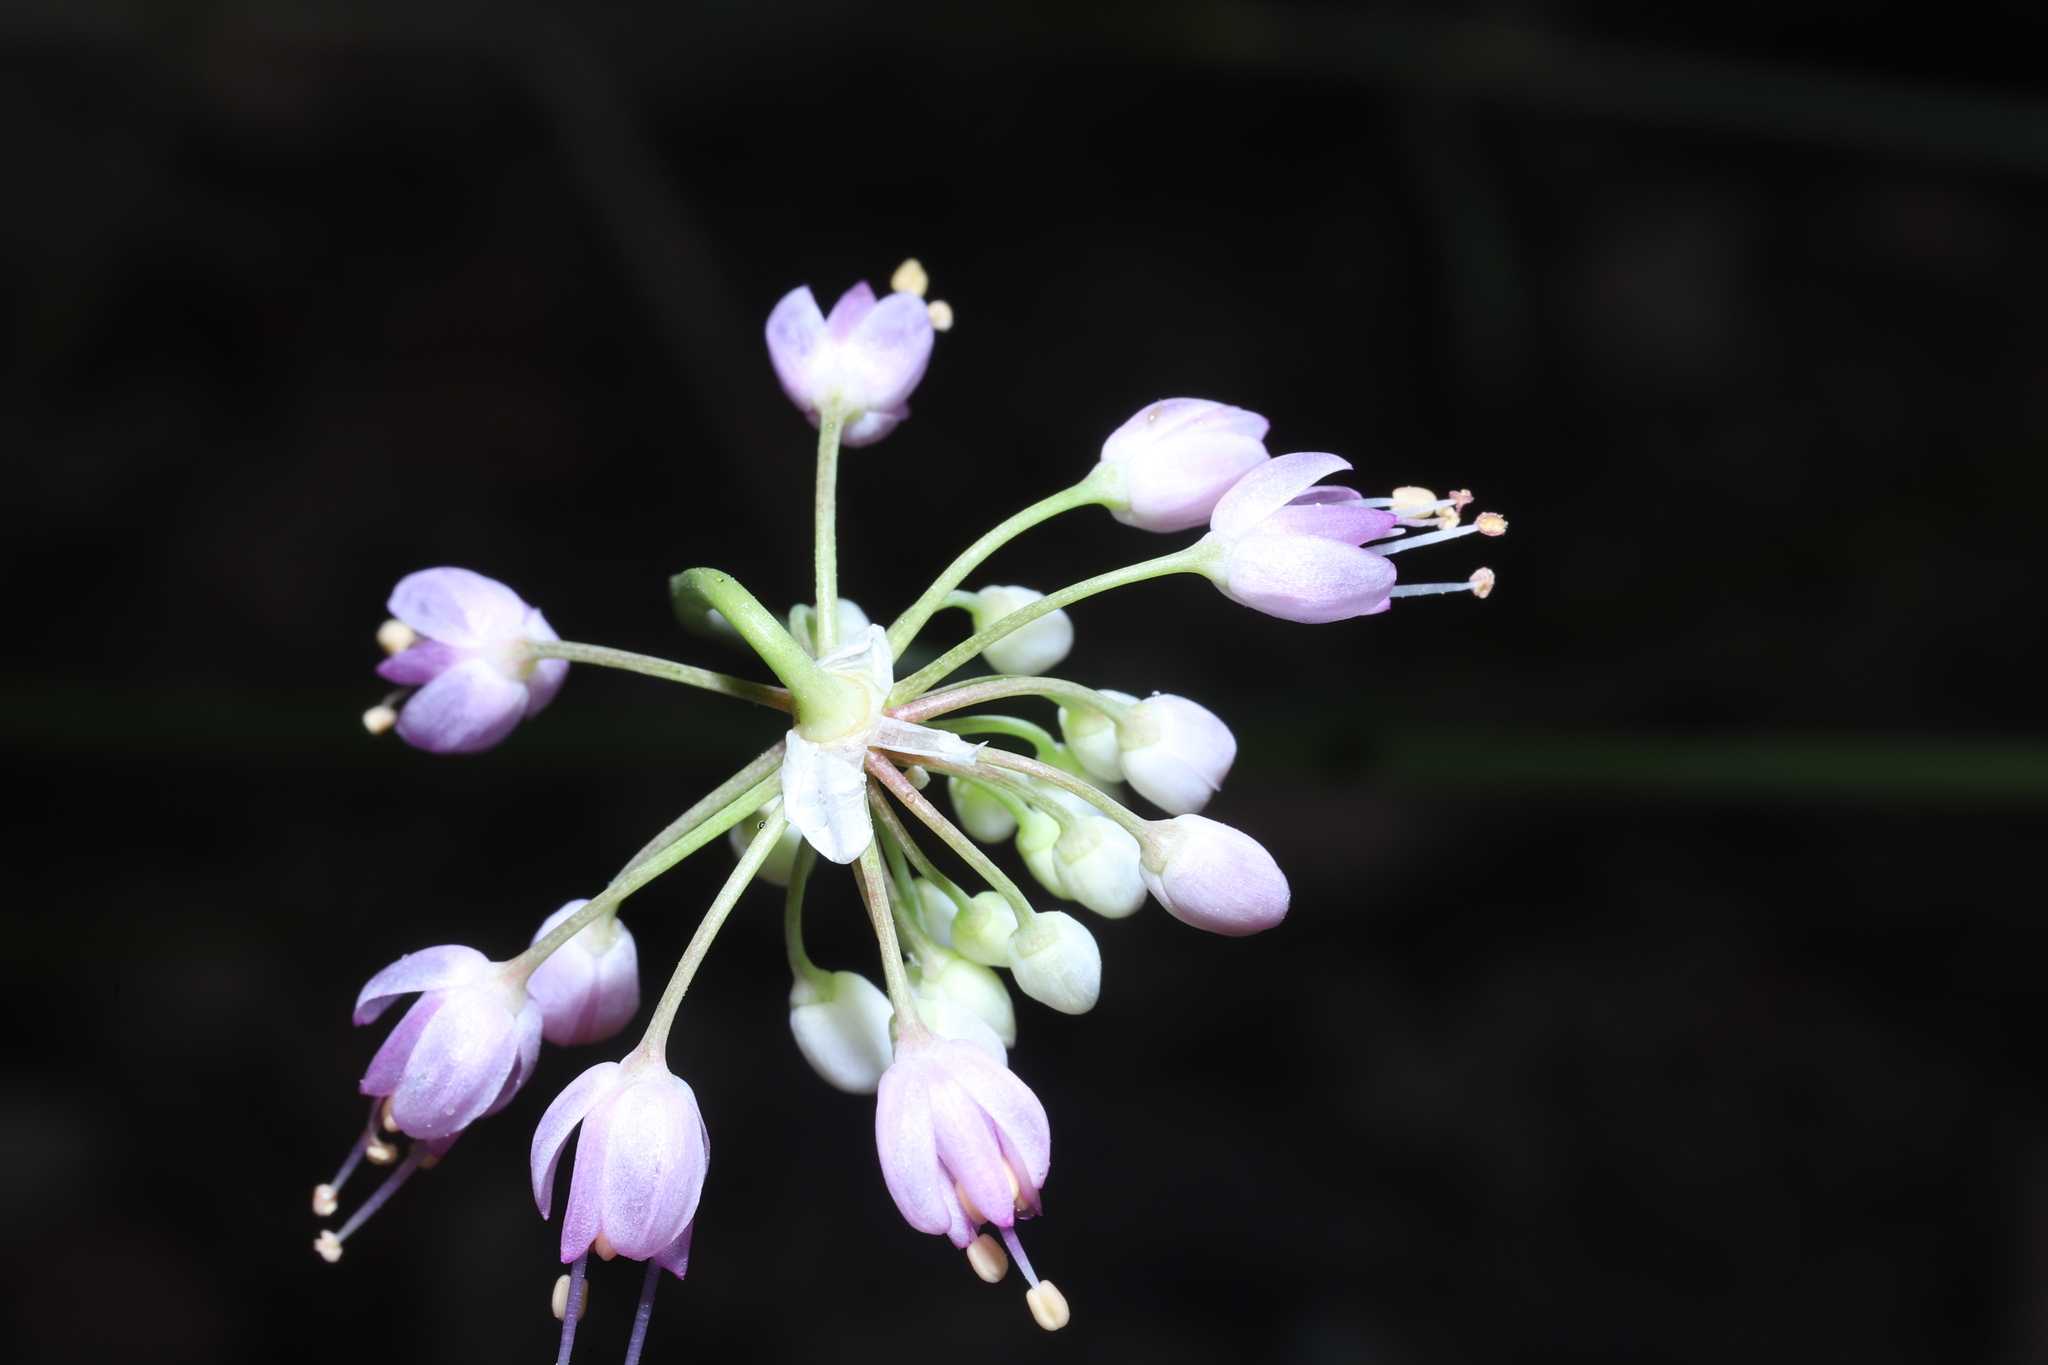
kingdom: Plantae
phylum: Tracheophyta
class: Liliopsida
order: Asparagales
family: Amaryllidaceae
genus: Allium
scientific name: Allium cernuum
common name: Nodding onion
